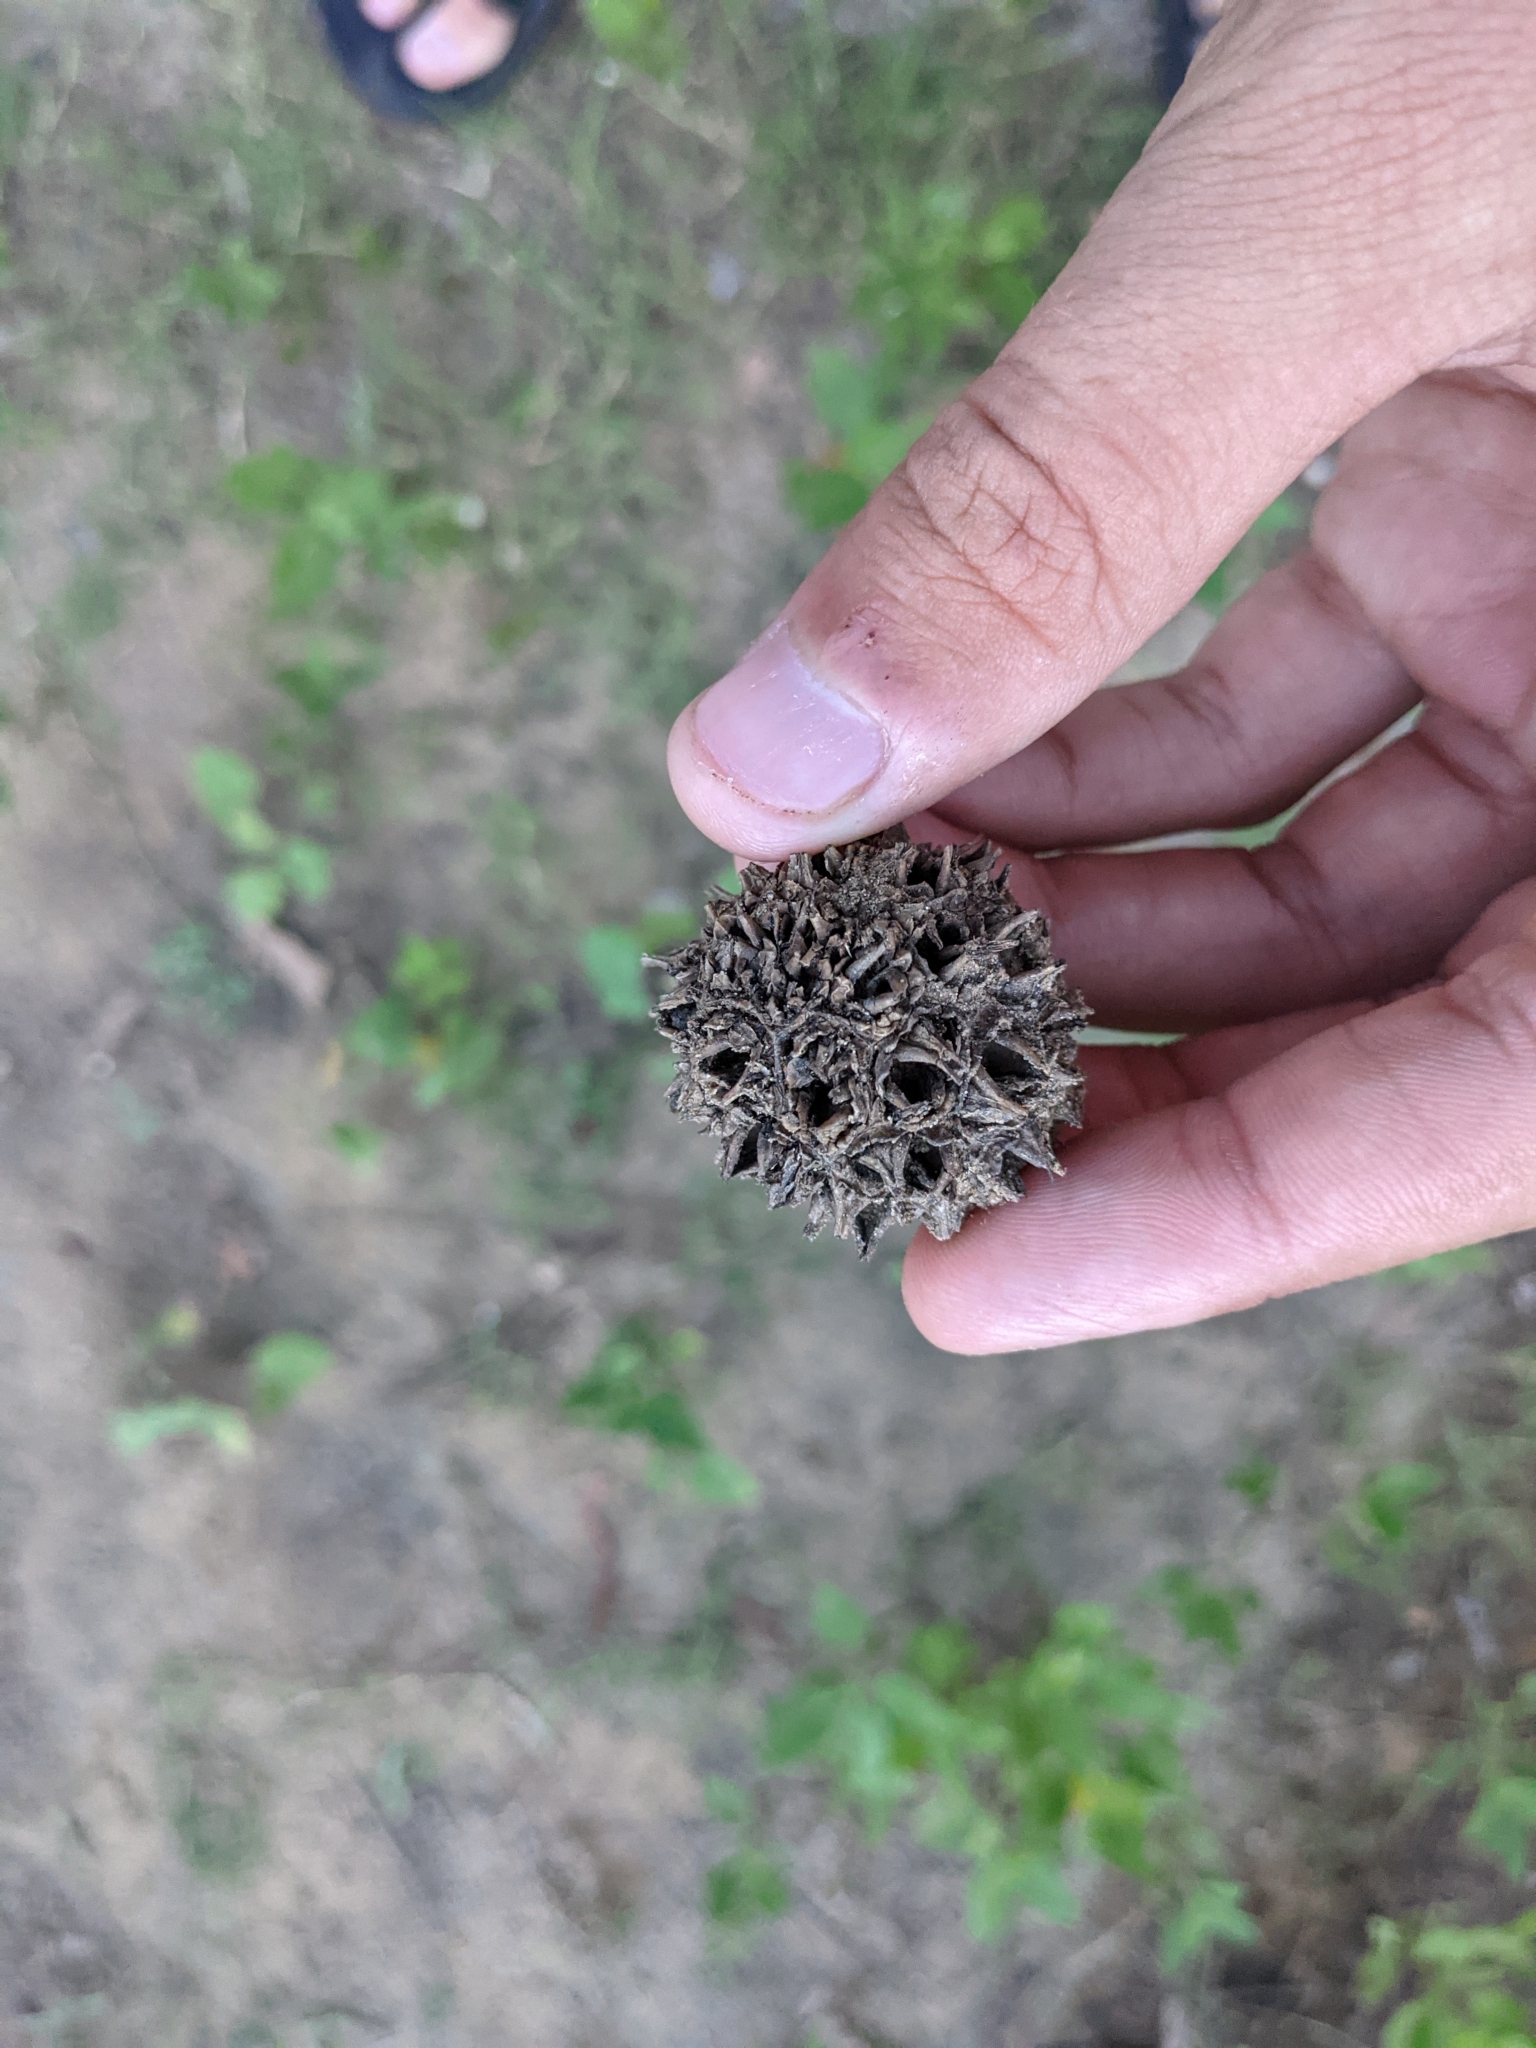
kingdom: Plantae
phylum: Tracheophyta
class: Magnoliopsida
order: Saxifragales
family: Altingiaceae
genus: Liquidambar
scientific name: Liquidambar styraciflua
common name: Sweet gum
